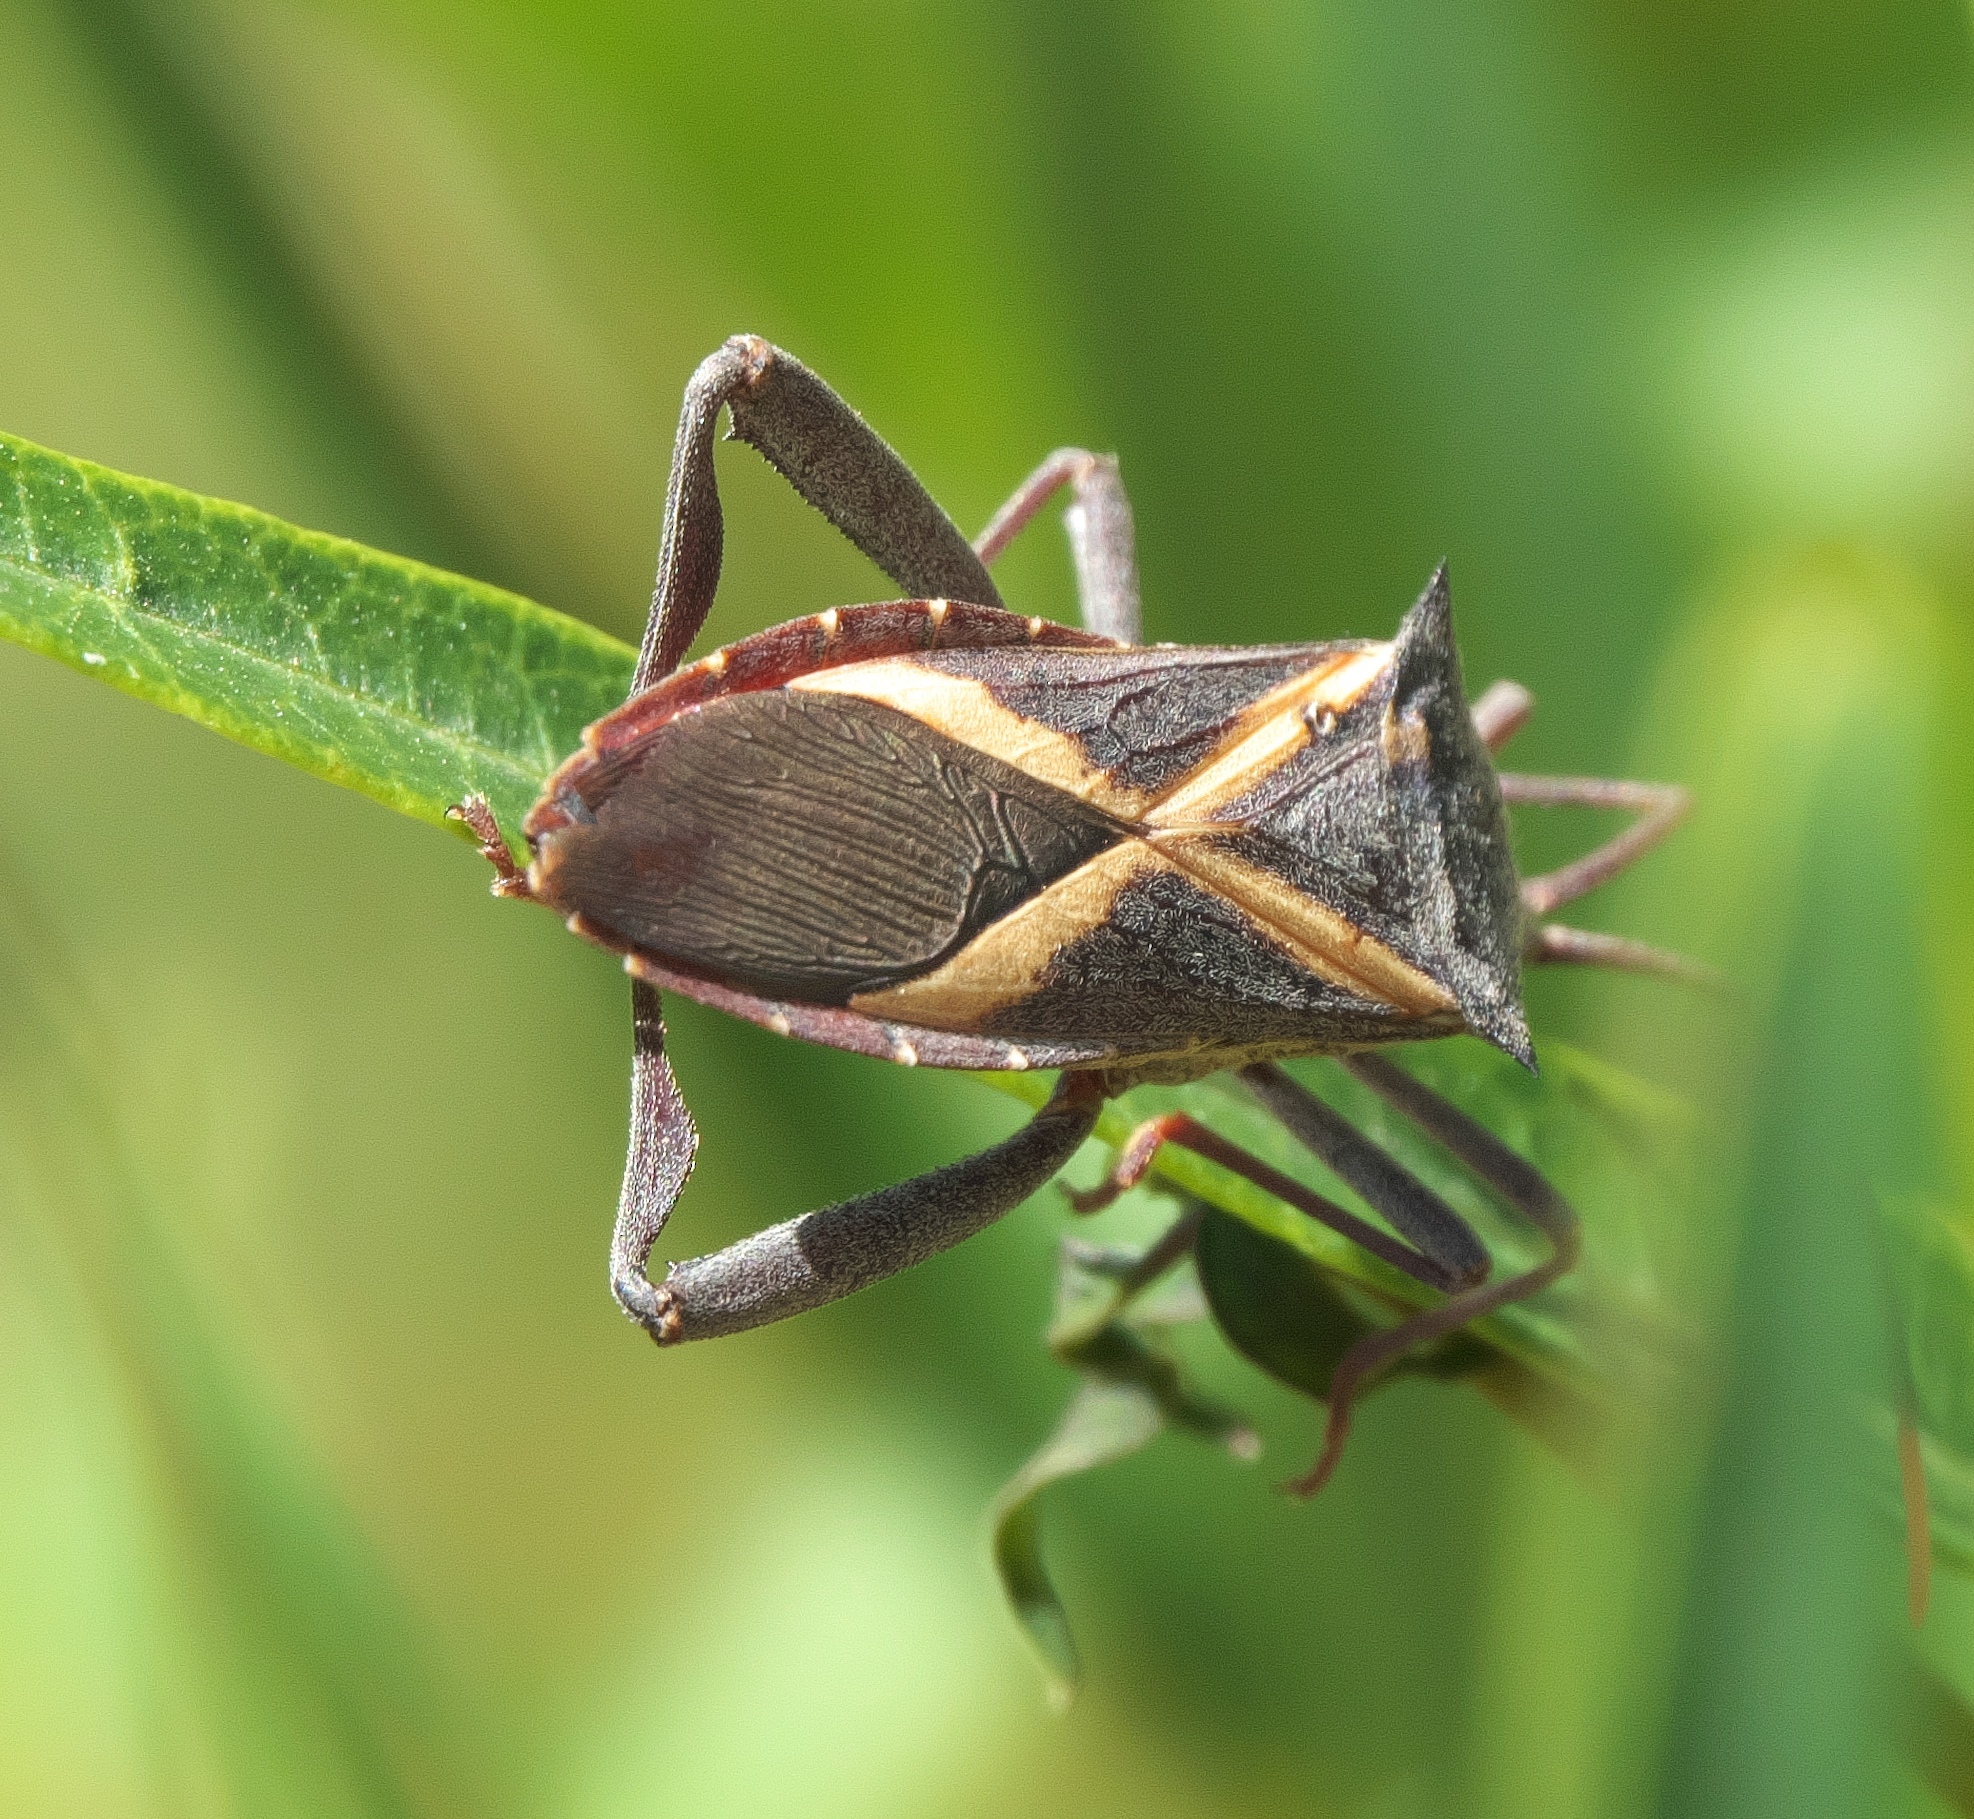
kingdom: Animalia
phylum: Arthropoda
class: Insecta
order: Hemiptera
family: Coreidae
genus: Mictis
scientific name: Mictis profana
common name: Crusader bug
